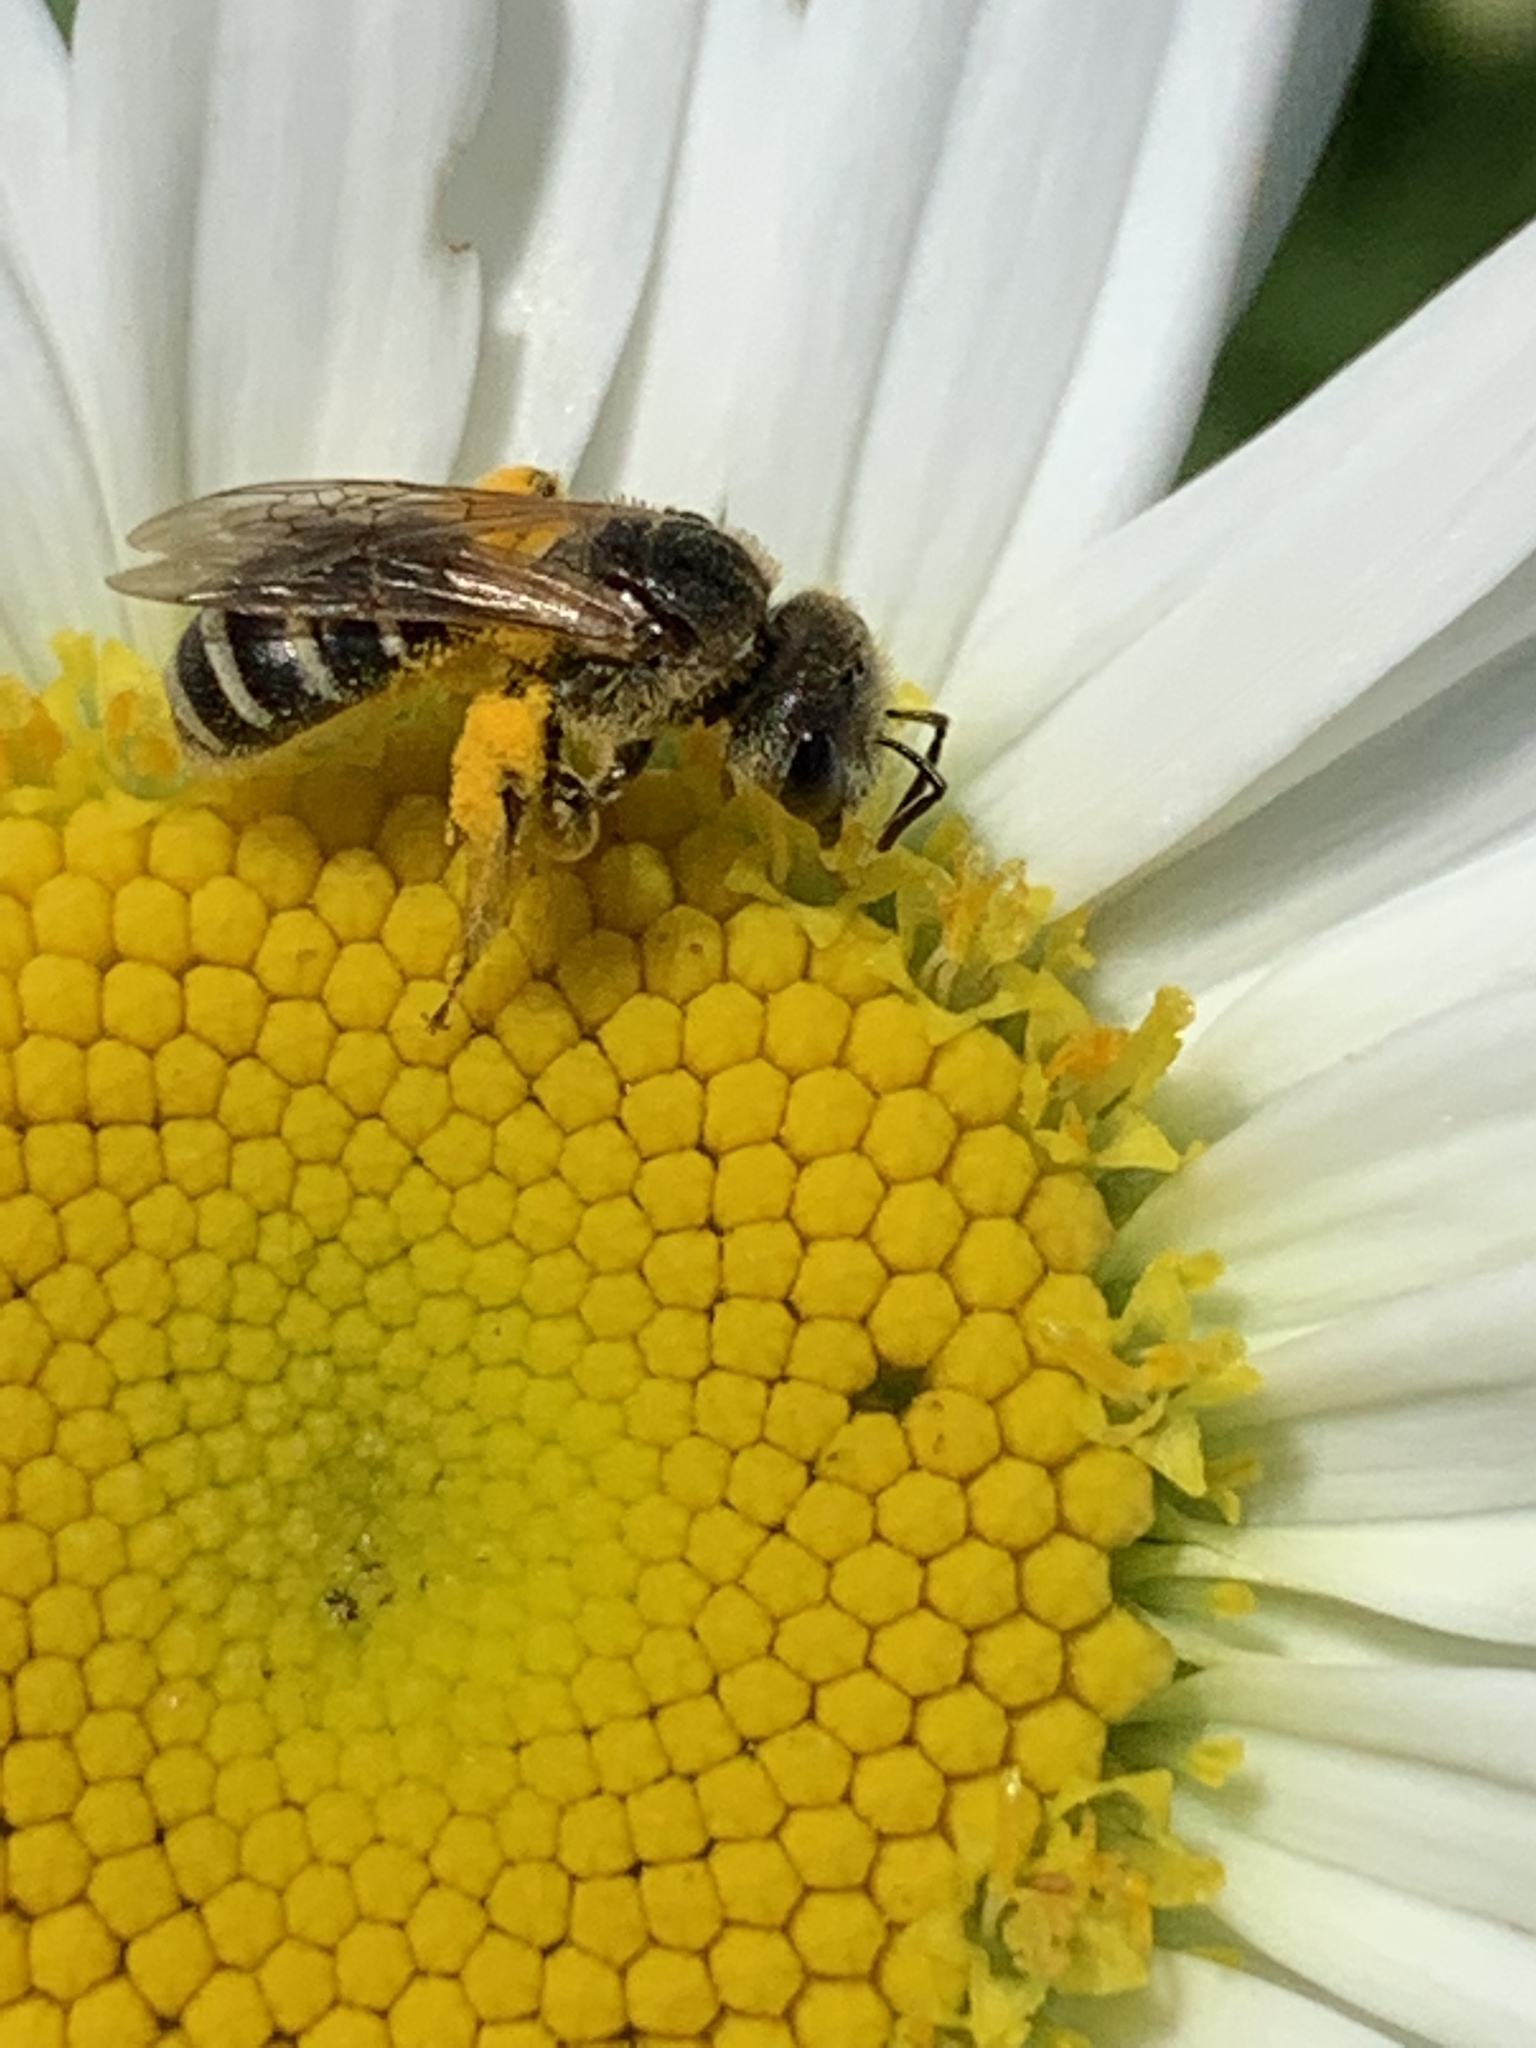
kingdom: Animalia
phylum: Arthropoda
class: Insecta
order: Hymenoptera
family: Halictidae
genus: Halictus
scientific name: Halictus ligatus
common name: Ligated furrow bee
